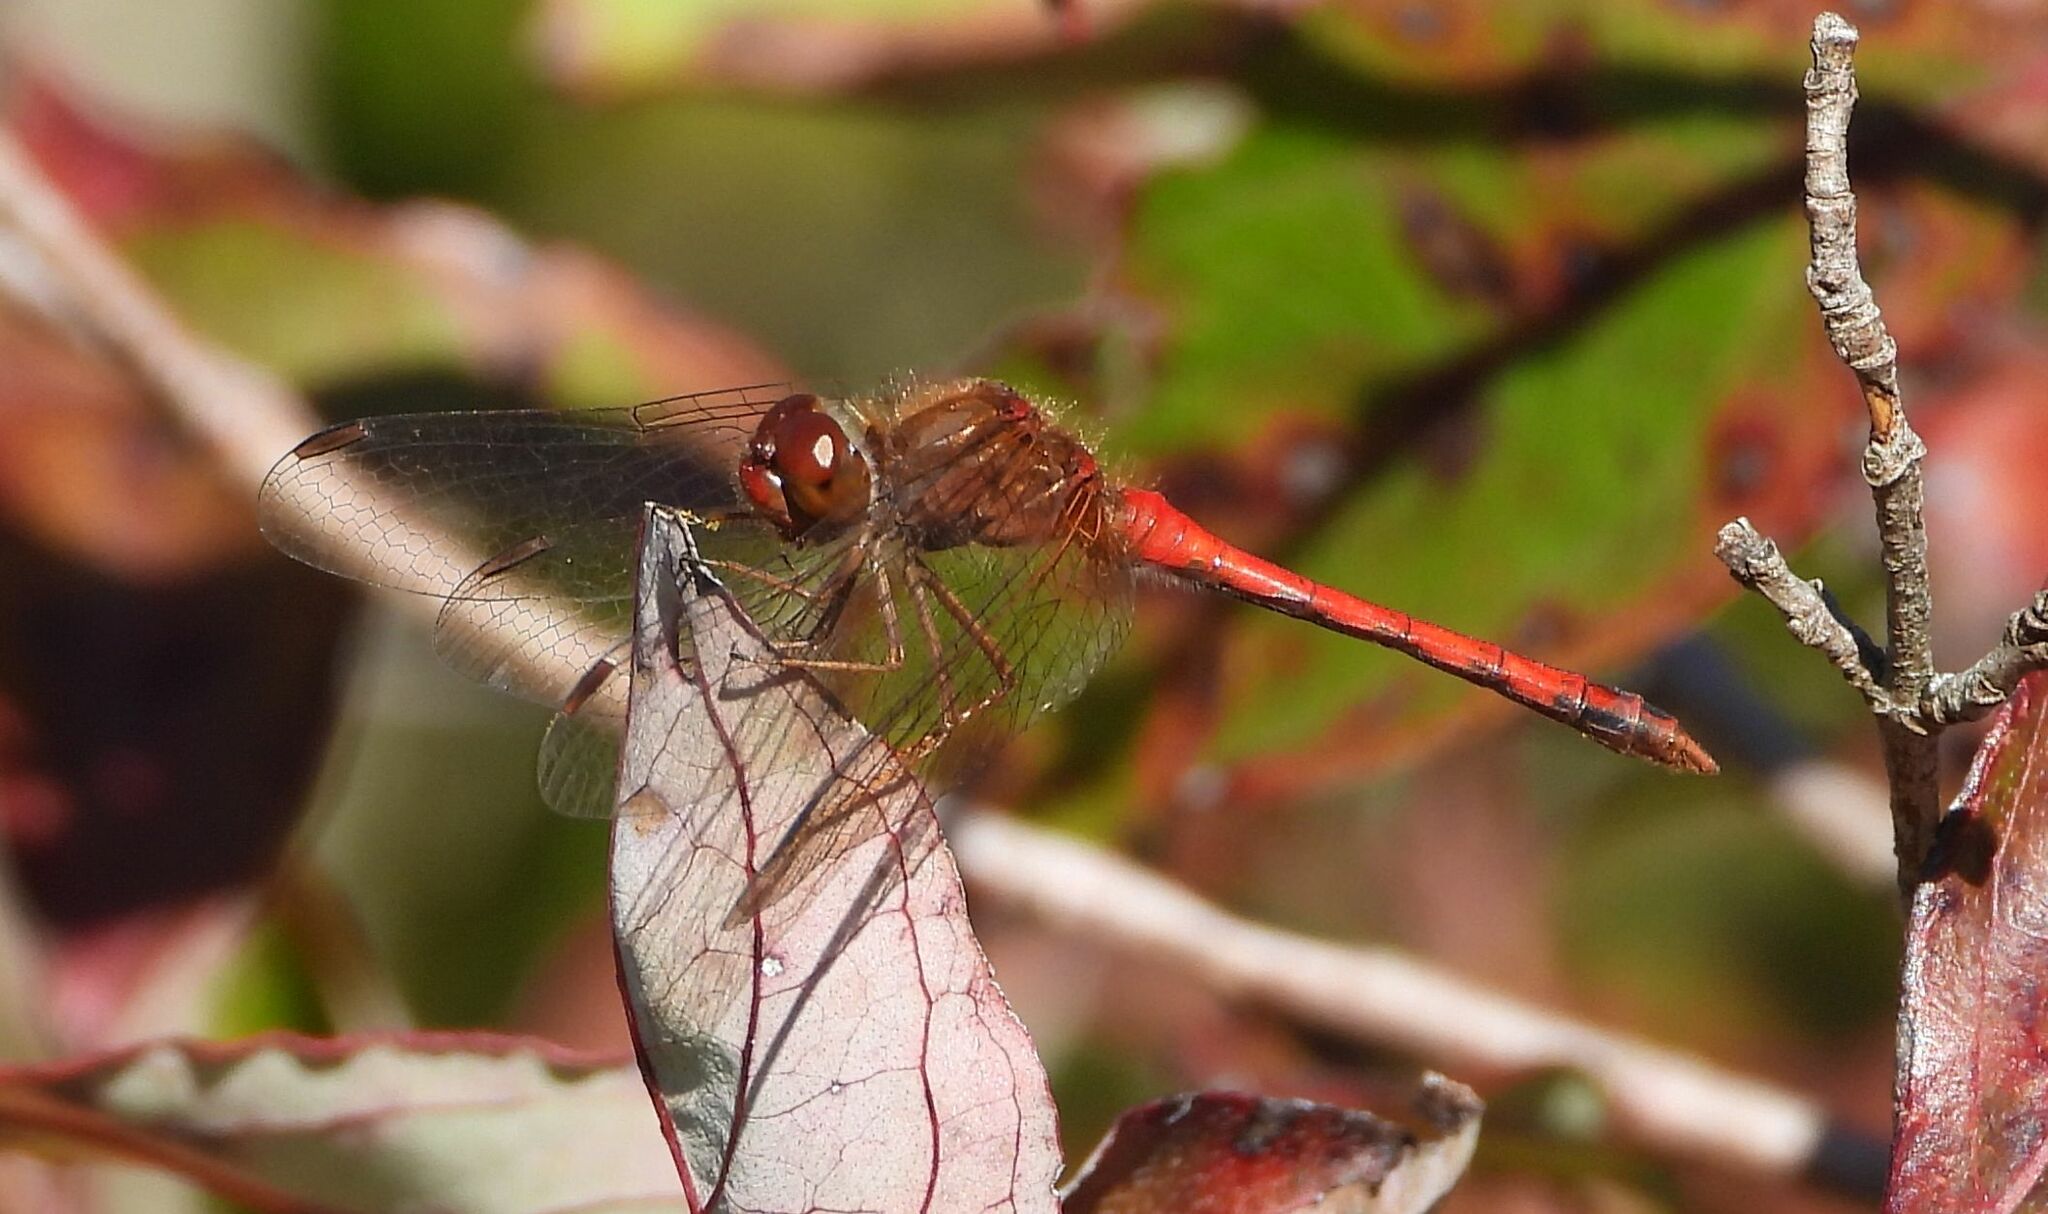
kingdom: Animalia
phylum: Arthropoda
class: Insecta
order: Odonata
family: Libellulidae
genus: Sympetrum
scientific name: Sympetrum vicinum
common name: Autumn meadowhawk
